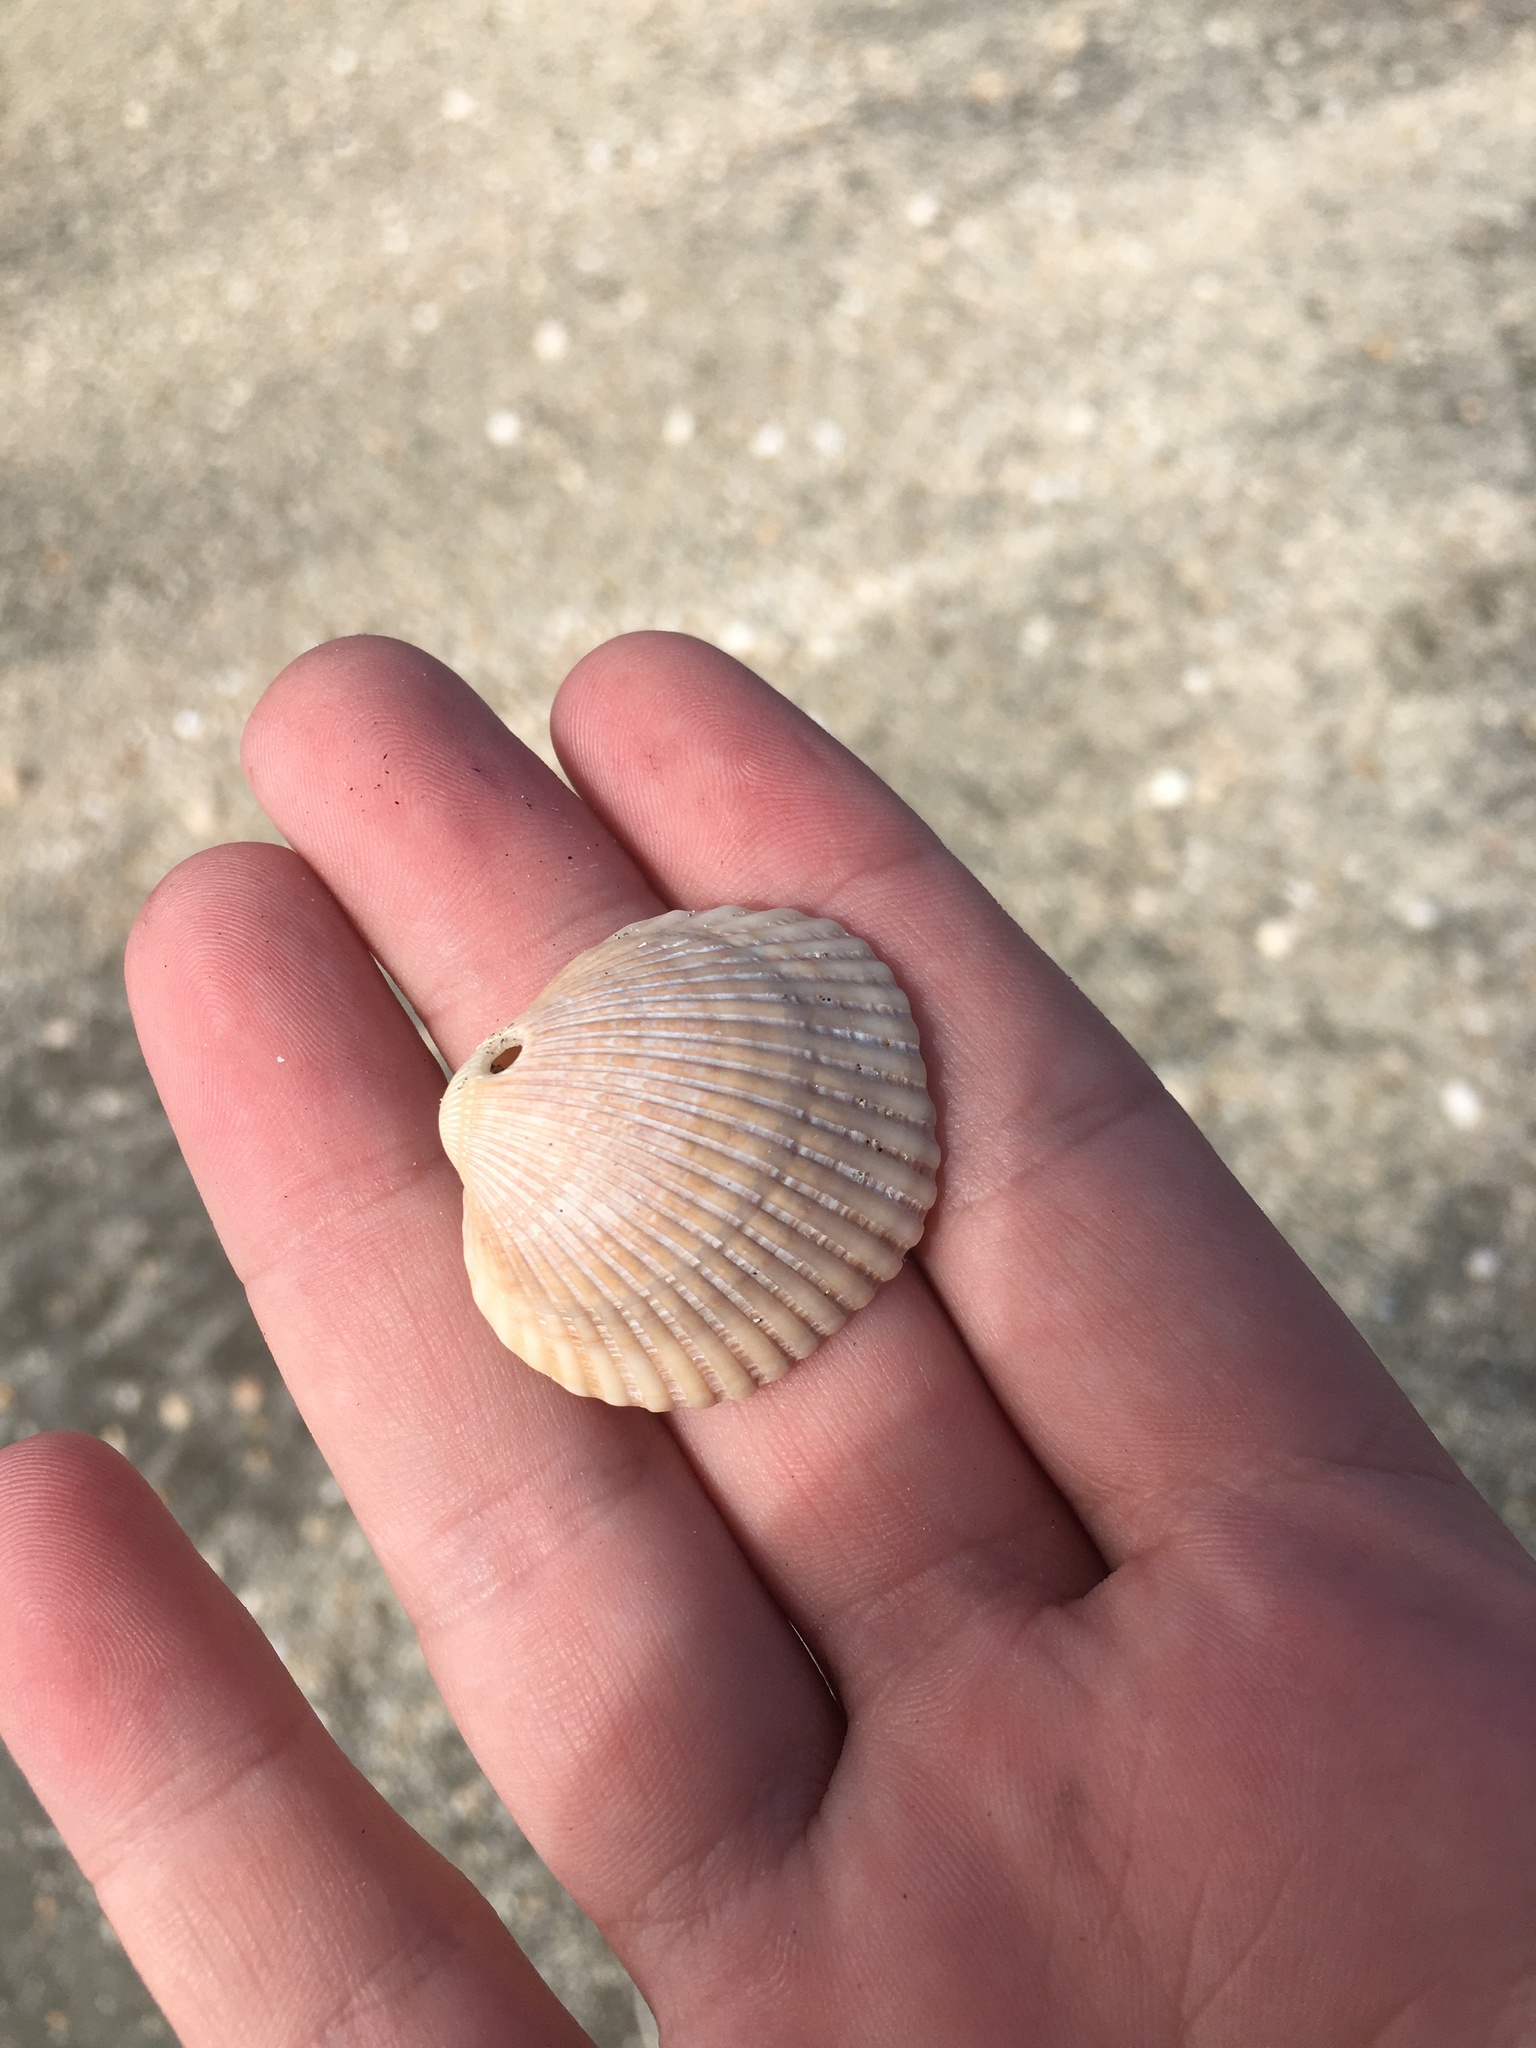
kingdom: Animalia
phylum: Mollusca
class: Bivalvia
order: Arcida
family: Arcidae
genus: Lunarca
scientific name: Lunarca ovalis
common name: Blood ark
